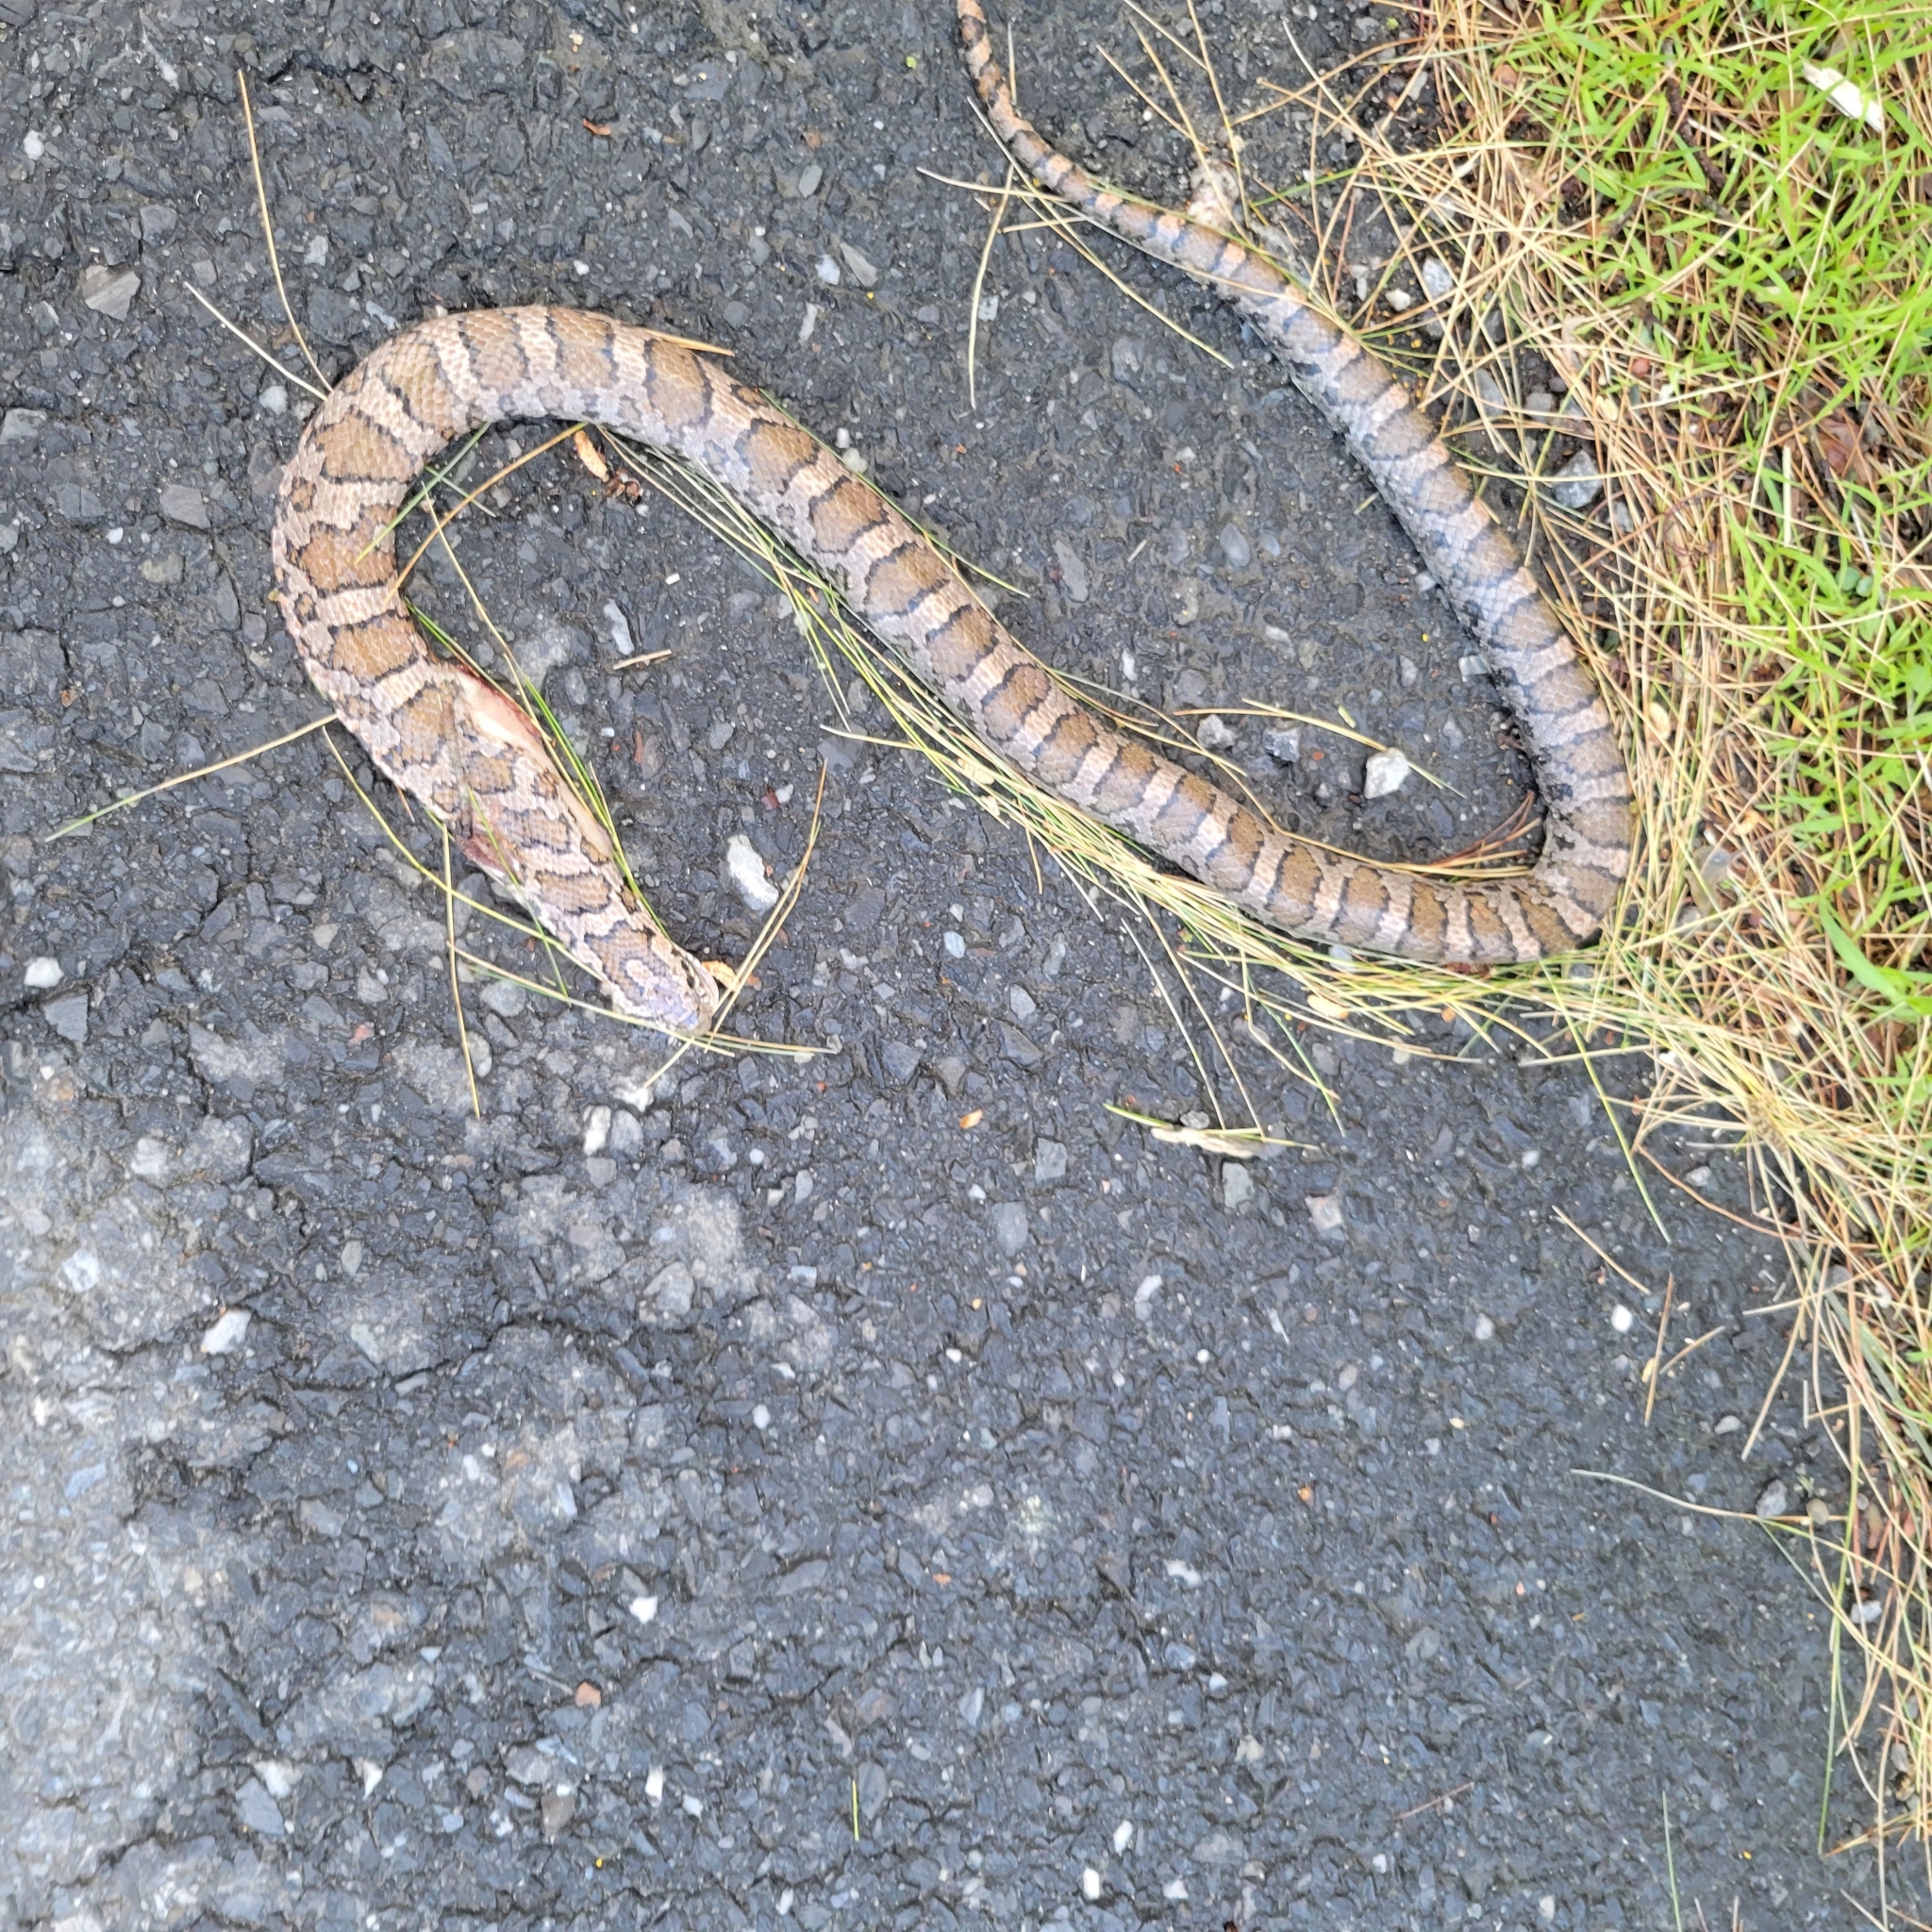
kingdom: Animalia
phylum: Chordata
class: Squamata
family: Colubridae
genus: Lampropeltis
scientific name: Lampropeltis triangulum
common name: Eastern milksnake
